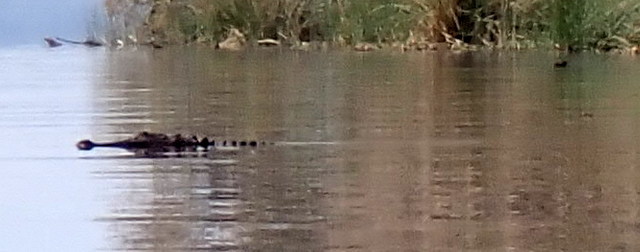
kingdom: Animalia
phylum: Chordata
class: Crocodylia
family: Alligatoridae
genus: Alligator
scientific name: Alligator mississippiensis
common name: American alligator
